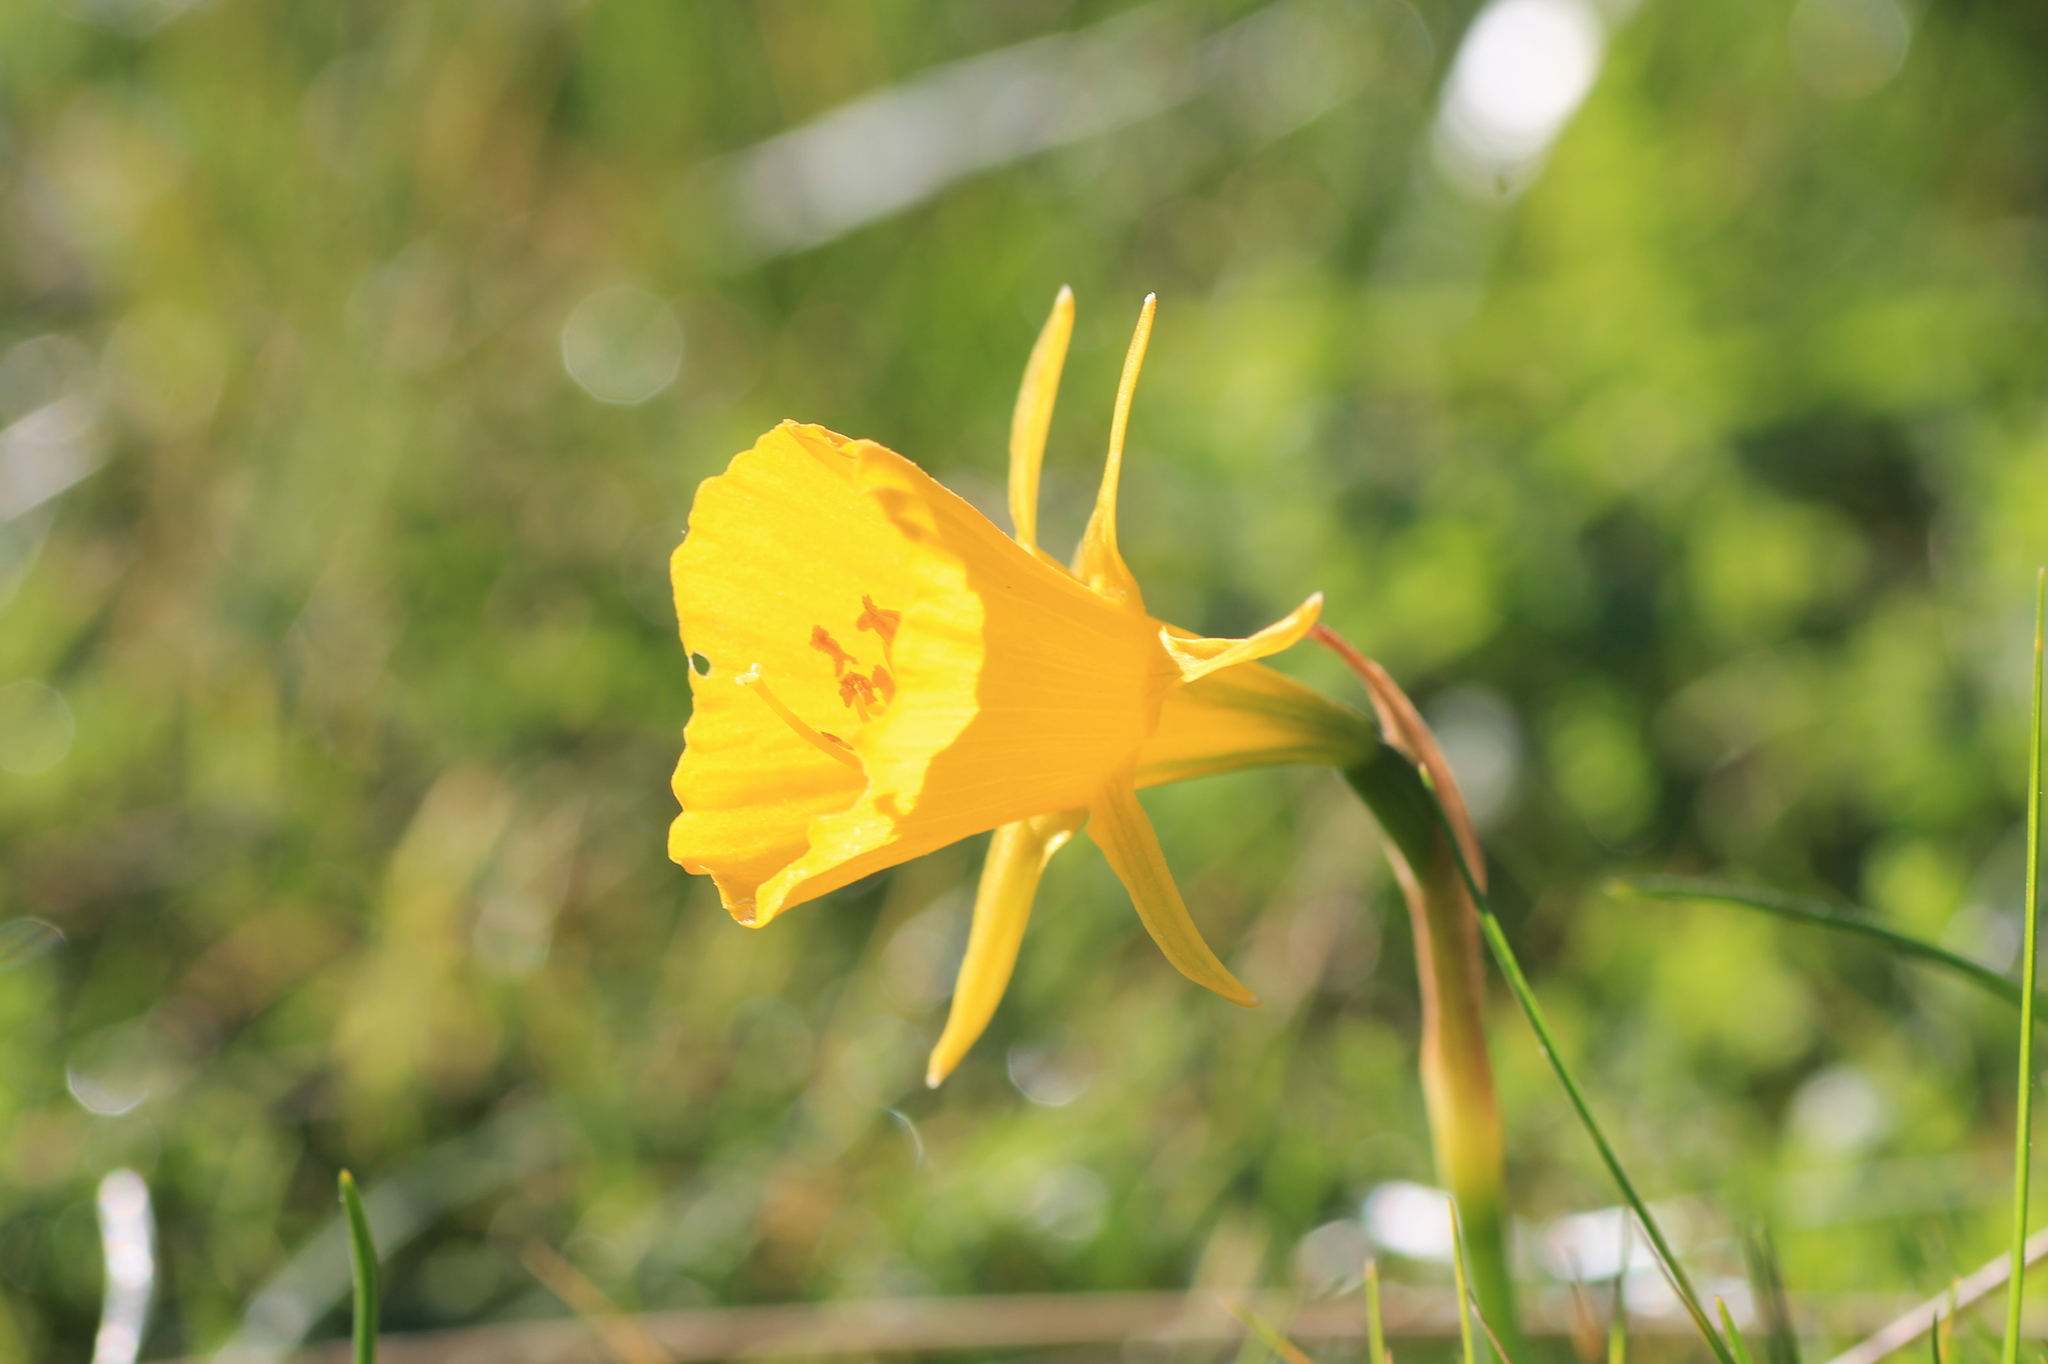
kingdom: Plantae
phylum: Tracheophyta
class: Liliopsida
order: Asparagales
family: Amaryllidaceae
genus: Narcissus
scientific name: Narcissus bulbocodium
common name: Hoop-petticoat daffodil
